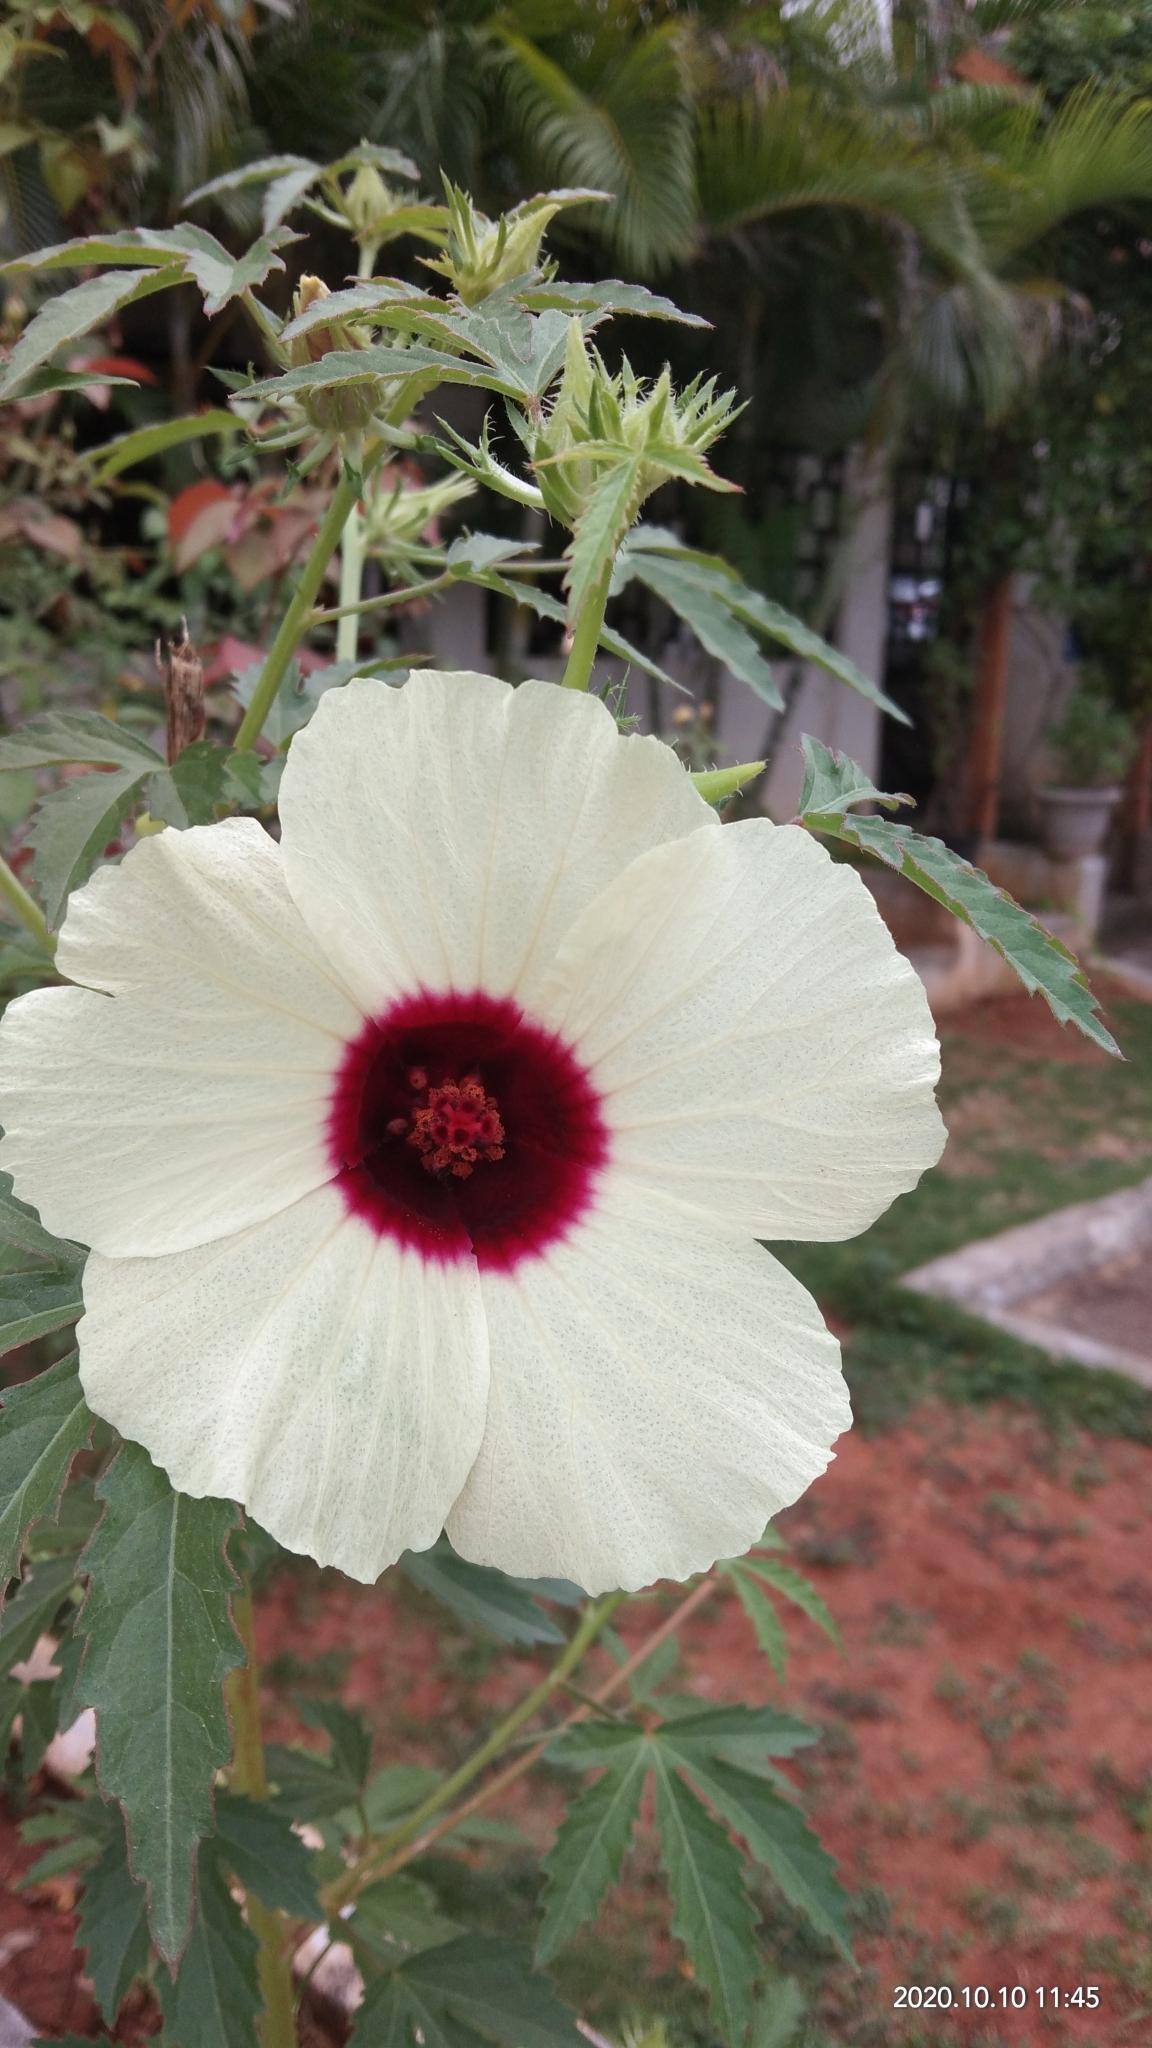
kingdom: Plantae
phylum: Tracheophyta
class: Magnoliopsida
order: Malvales
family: Malvaceae
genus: Hibiscus
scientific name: Hibiscus cannabinus
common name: Brown indianhemp
